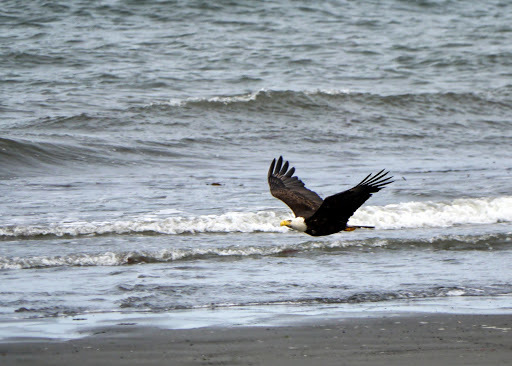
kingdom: Animalia
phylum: Chordata
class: Aves
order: Accipitriformes
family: Accipitridae
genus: Haliaeetus
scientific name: Haliaeetus leucocephalus
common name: Bald eagle
